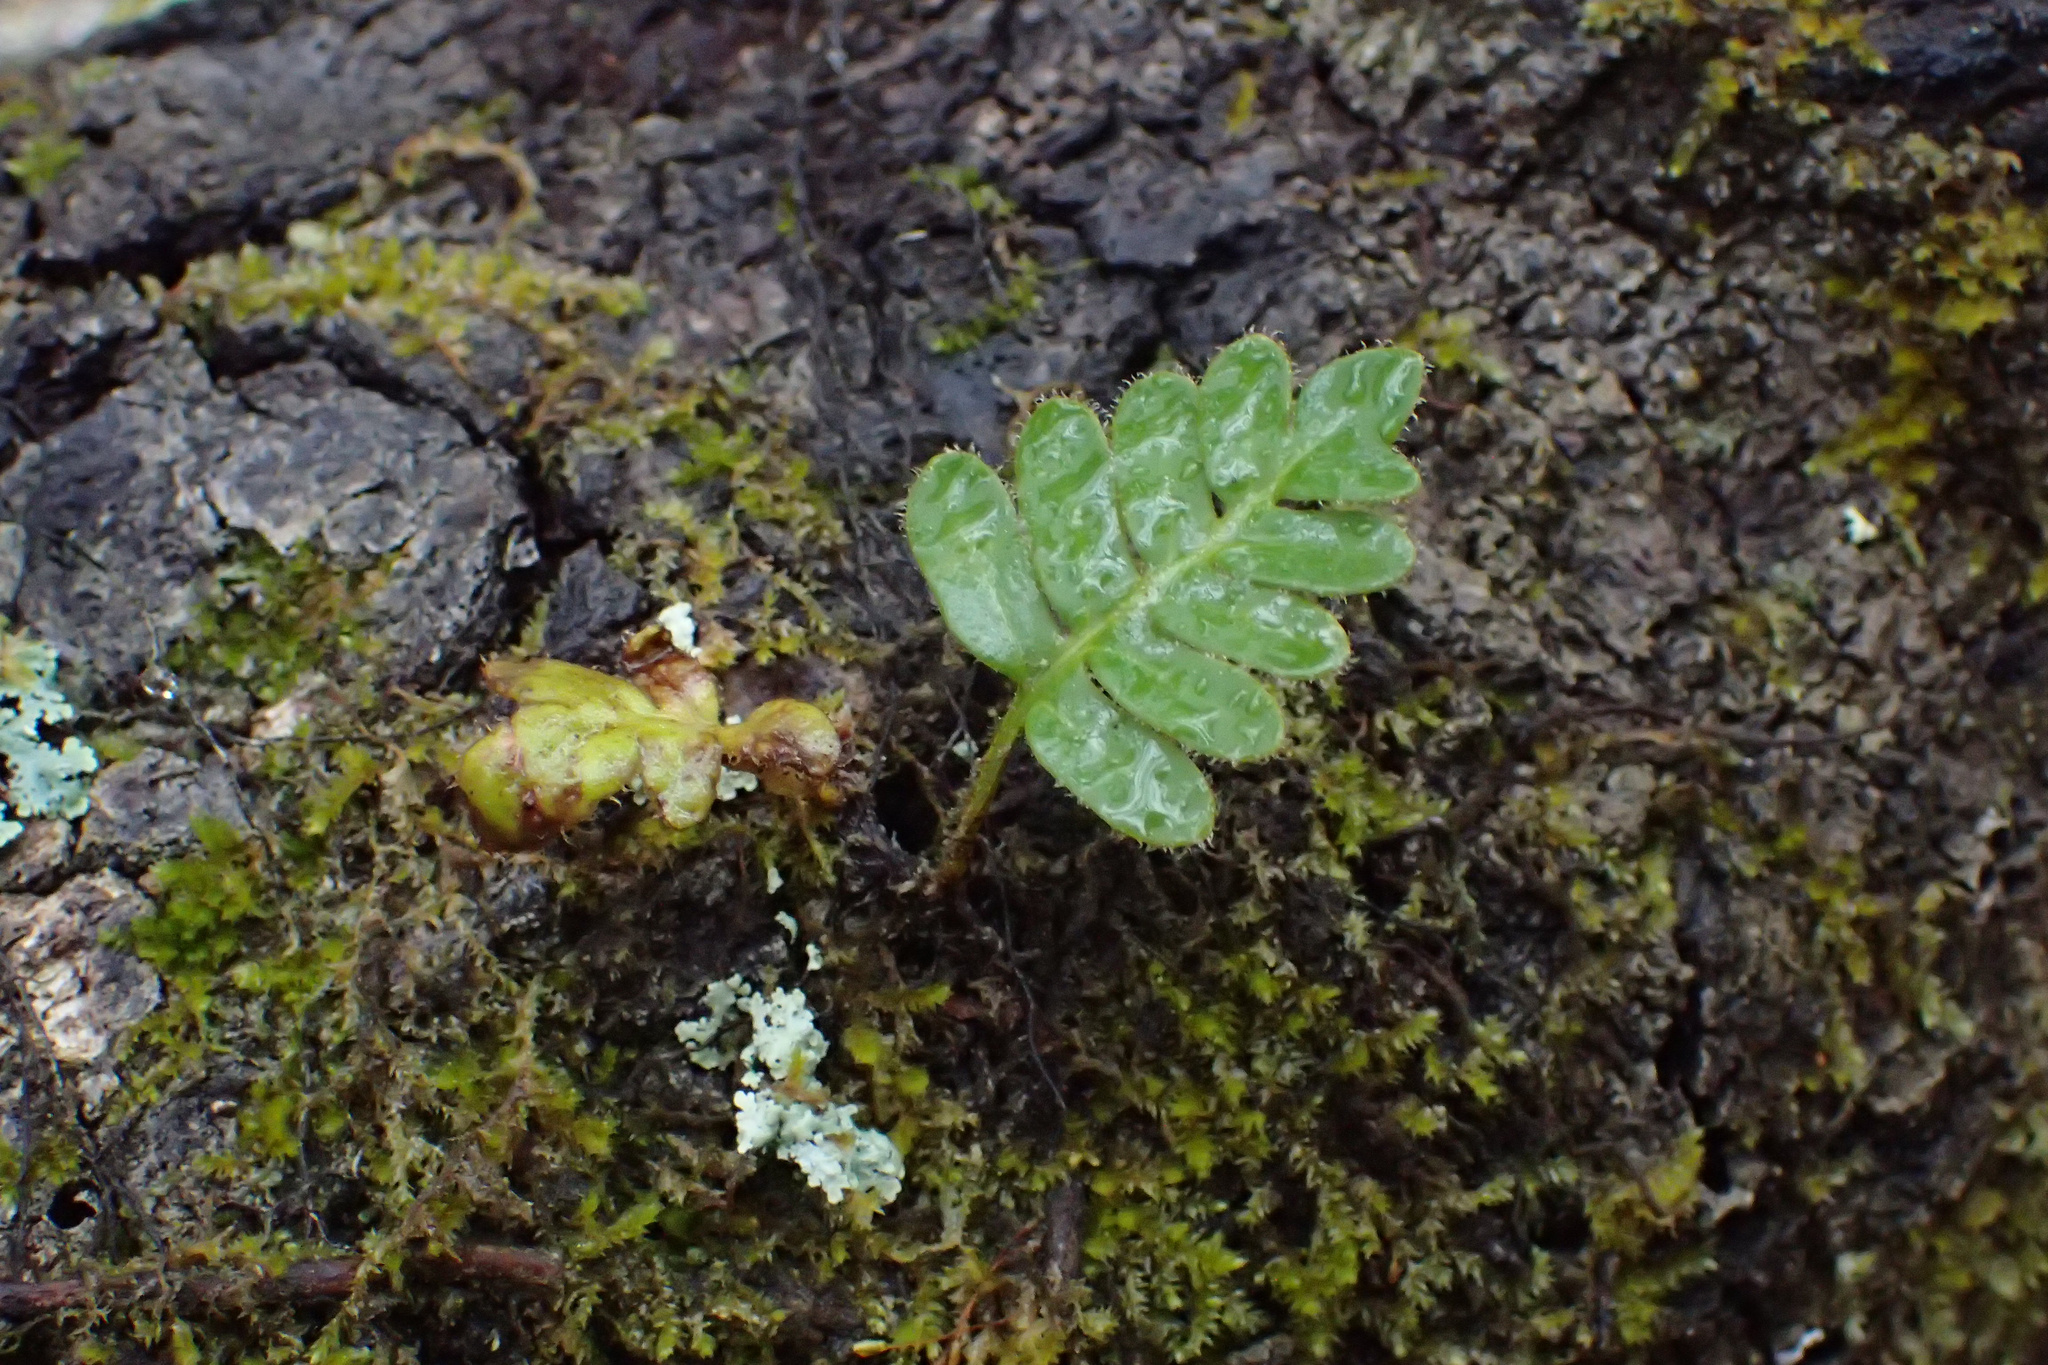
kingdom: Plantae
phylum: Tracheophyta
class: Polypodiopsida
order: Polypodiales
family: Polypodiaceae
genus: Pleopeltis
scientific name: Pleopeltis michauxiana
